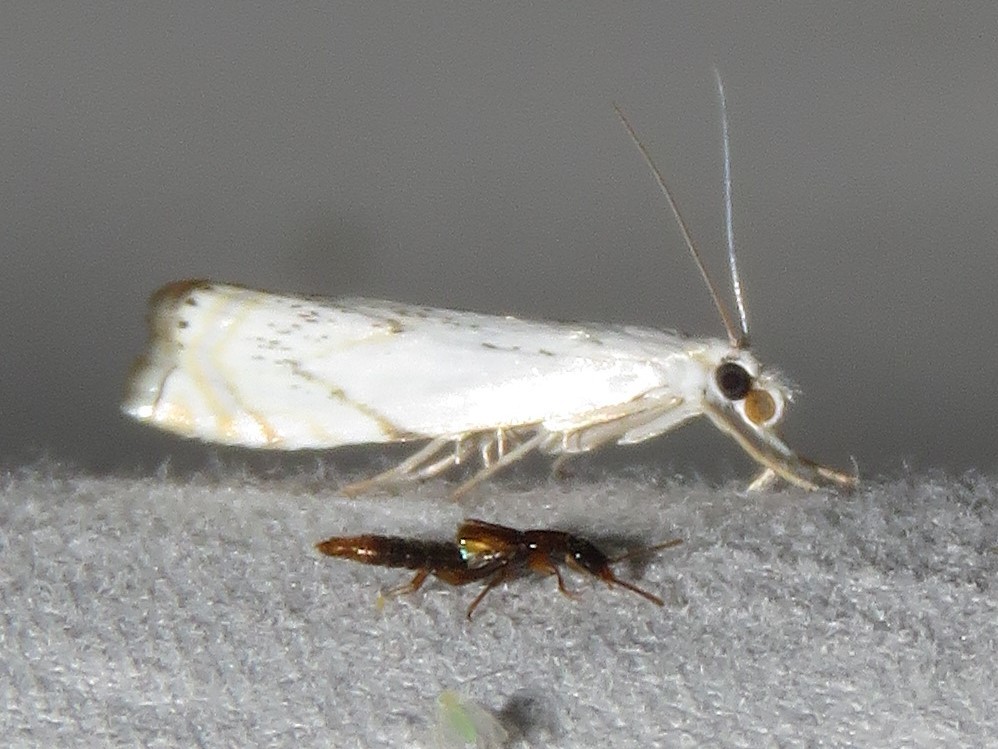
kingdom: Animalia
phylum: Arthropoda
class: Insecta
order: Lepidoptera
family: Crambidae
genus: Crambus
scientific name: Crambus albellus
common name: Small white grass-veneer
